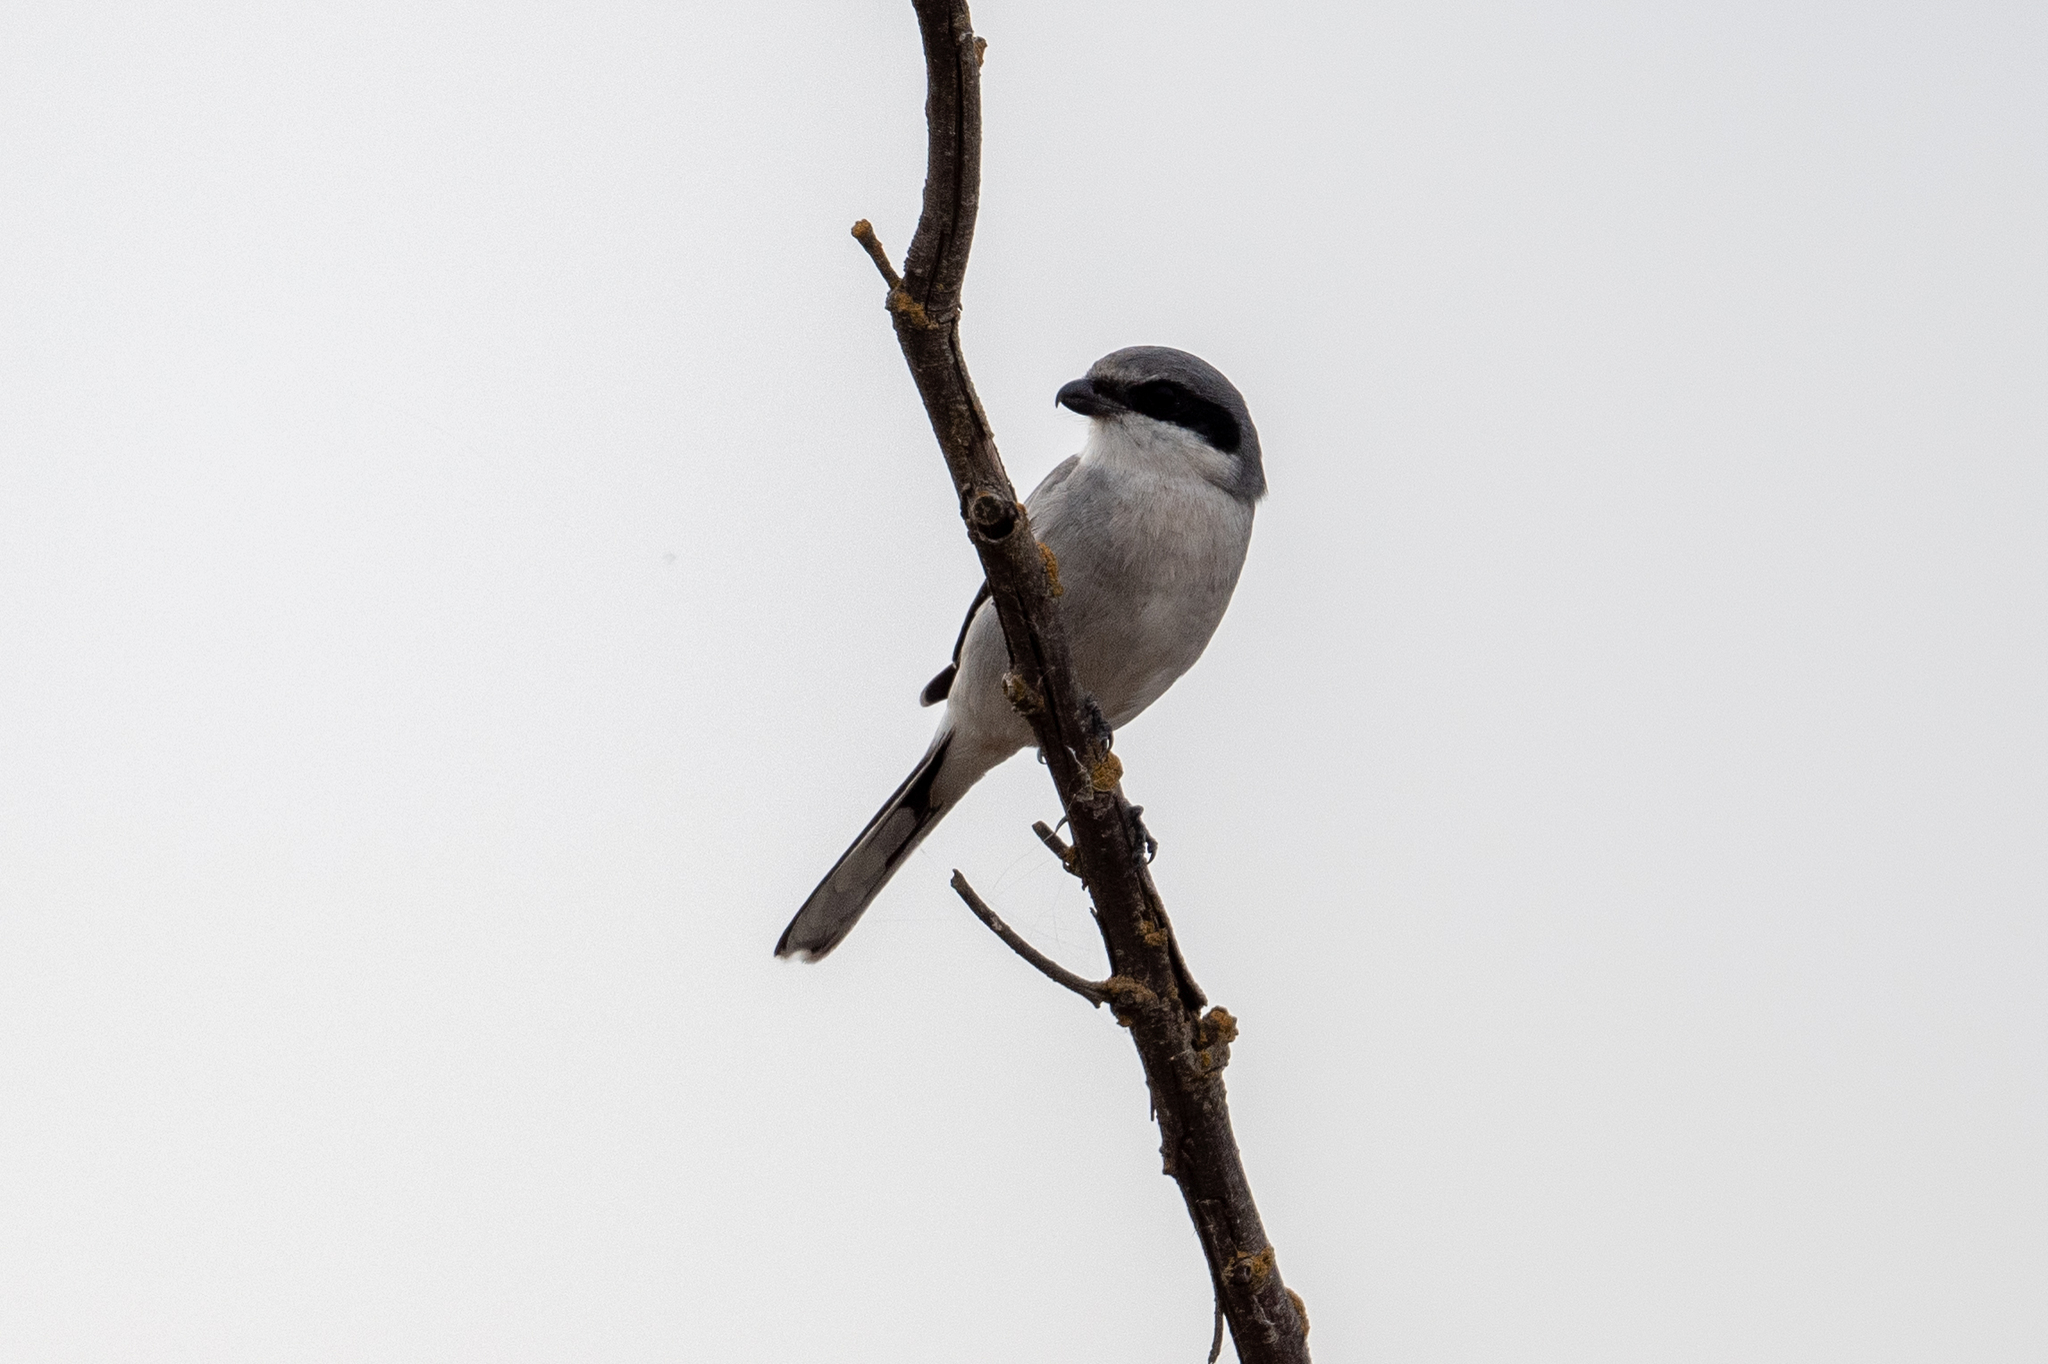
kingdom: Animalia
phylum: Chordata
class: Aves
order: Passeriformes
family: Laniidae
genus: Lanius
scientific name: Lanius ludovicianus
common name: Loggerhead shrike
